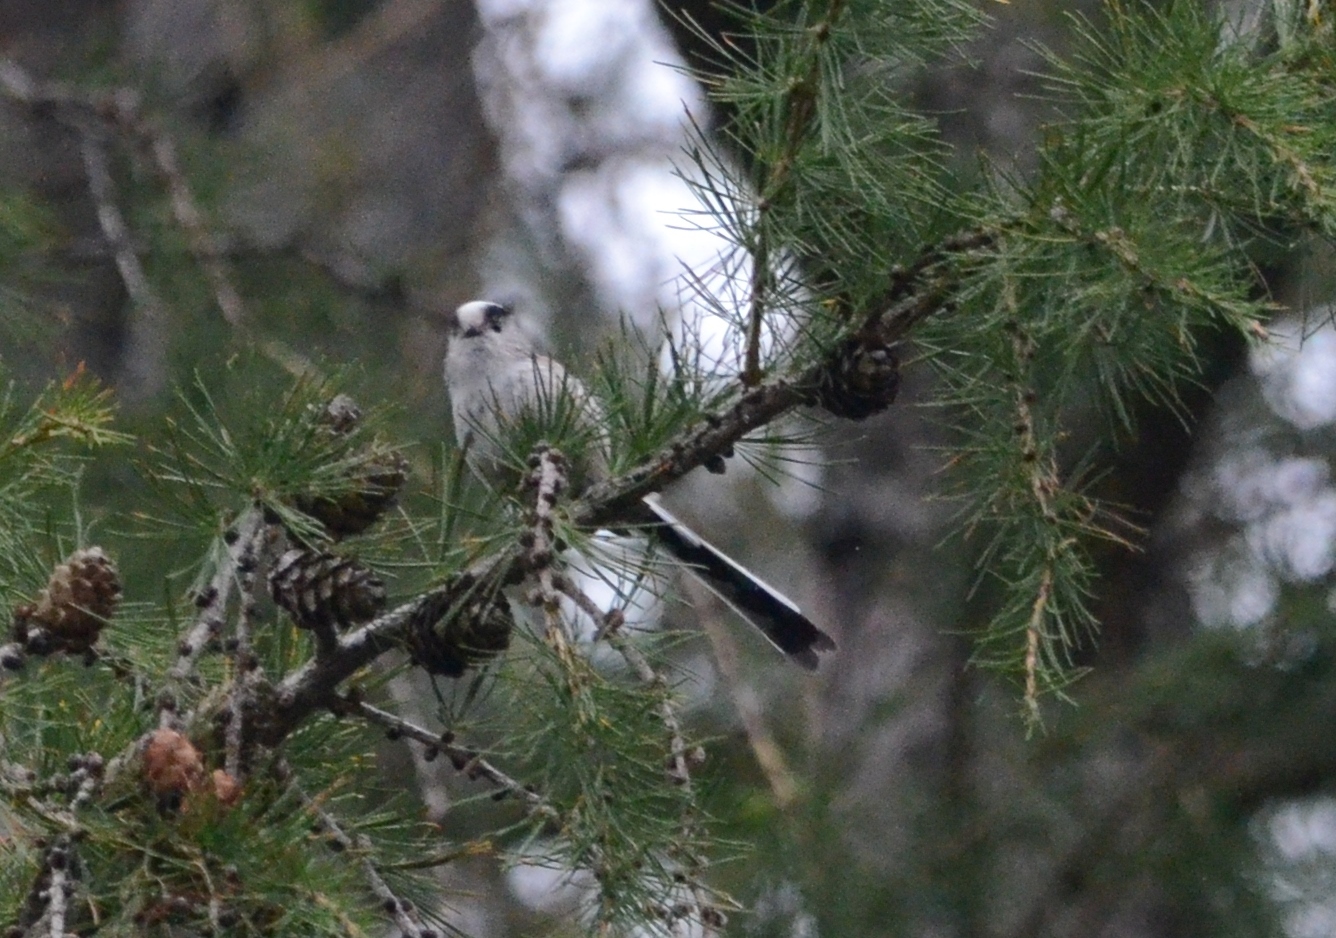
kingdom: Animalia
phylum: Chordata
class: Aves
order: Passeriformes
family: Aegithalidae
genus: Aegithalos
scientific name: Aegithalos caudatus
